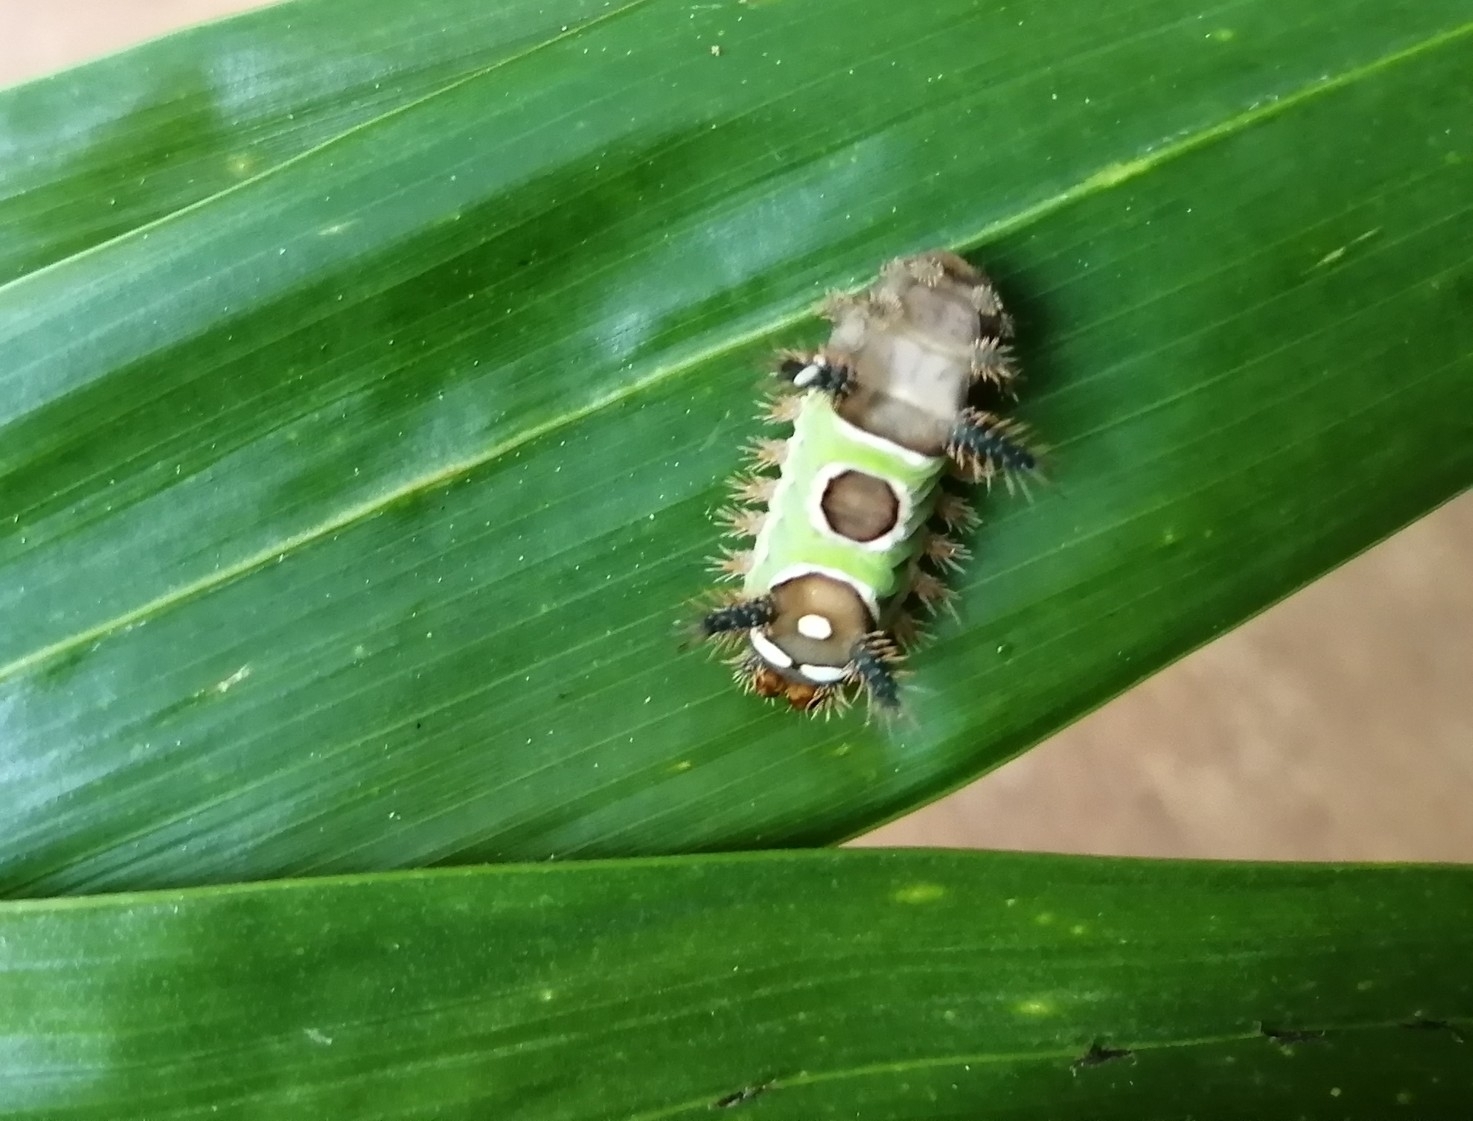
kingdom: Animalia
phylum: Arthropoda
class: Insecta
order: Lepidoptera
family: Limacodidae
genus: Acharia
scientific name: Acharia stimulea
